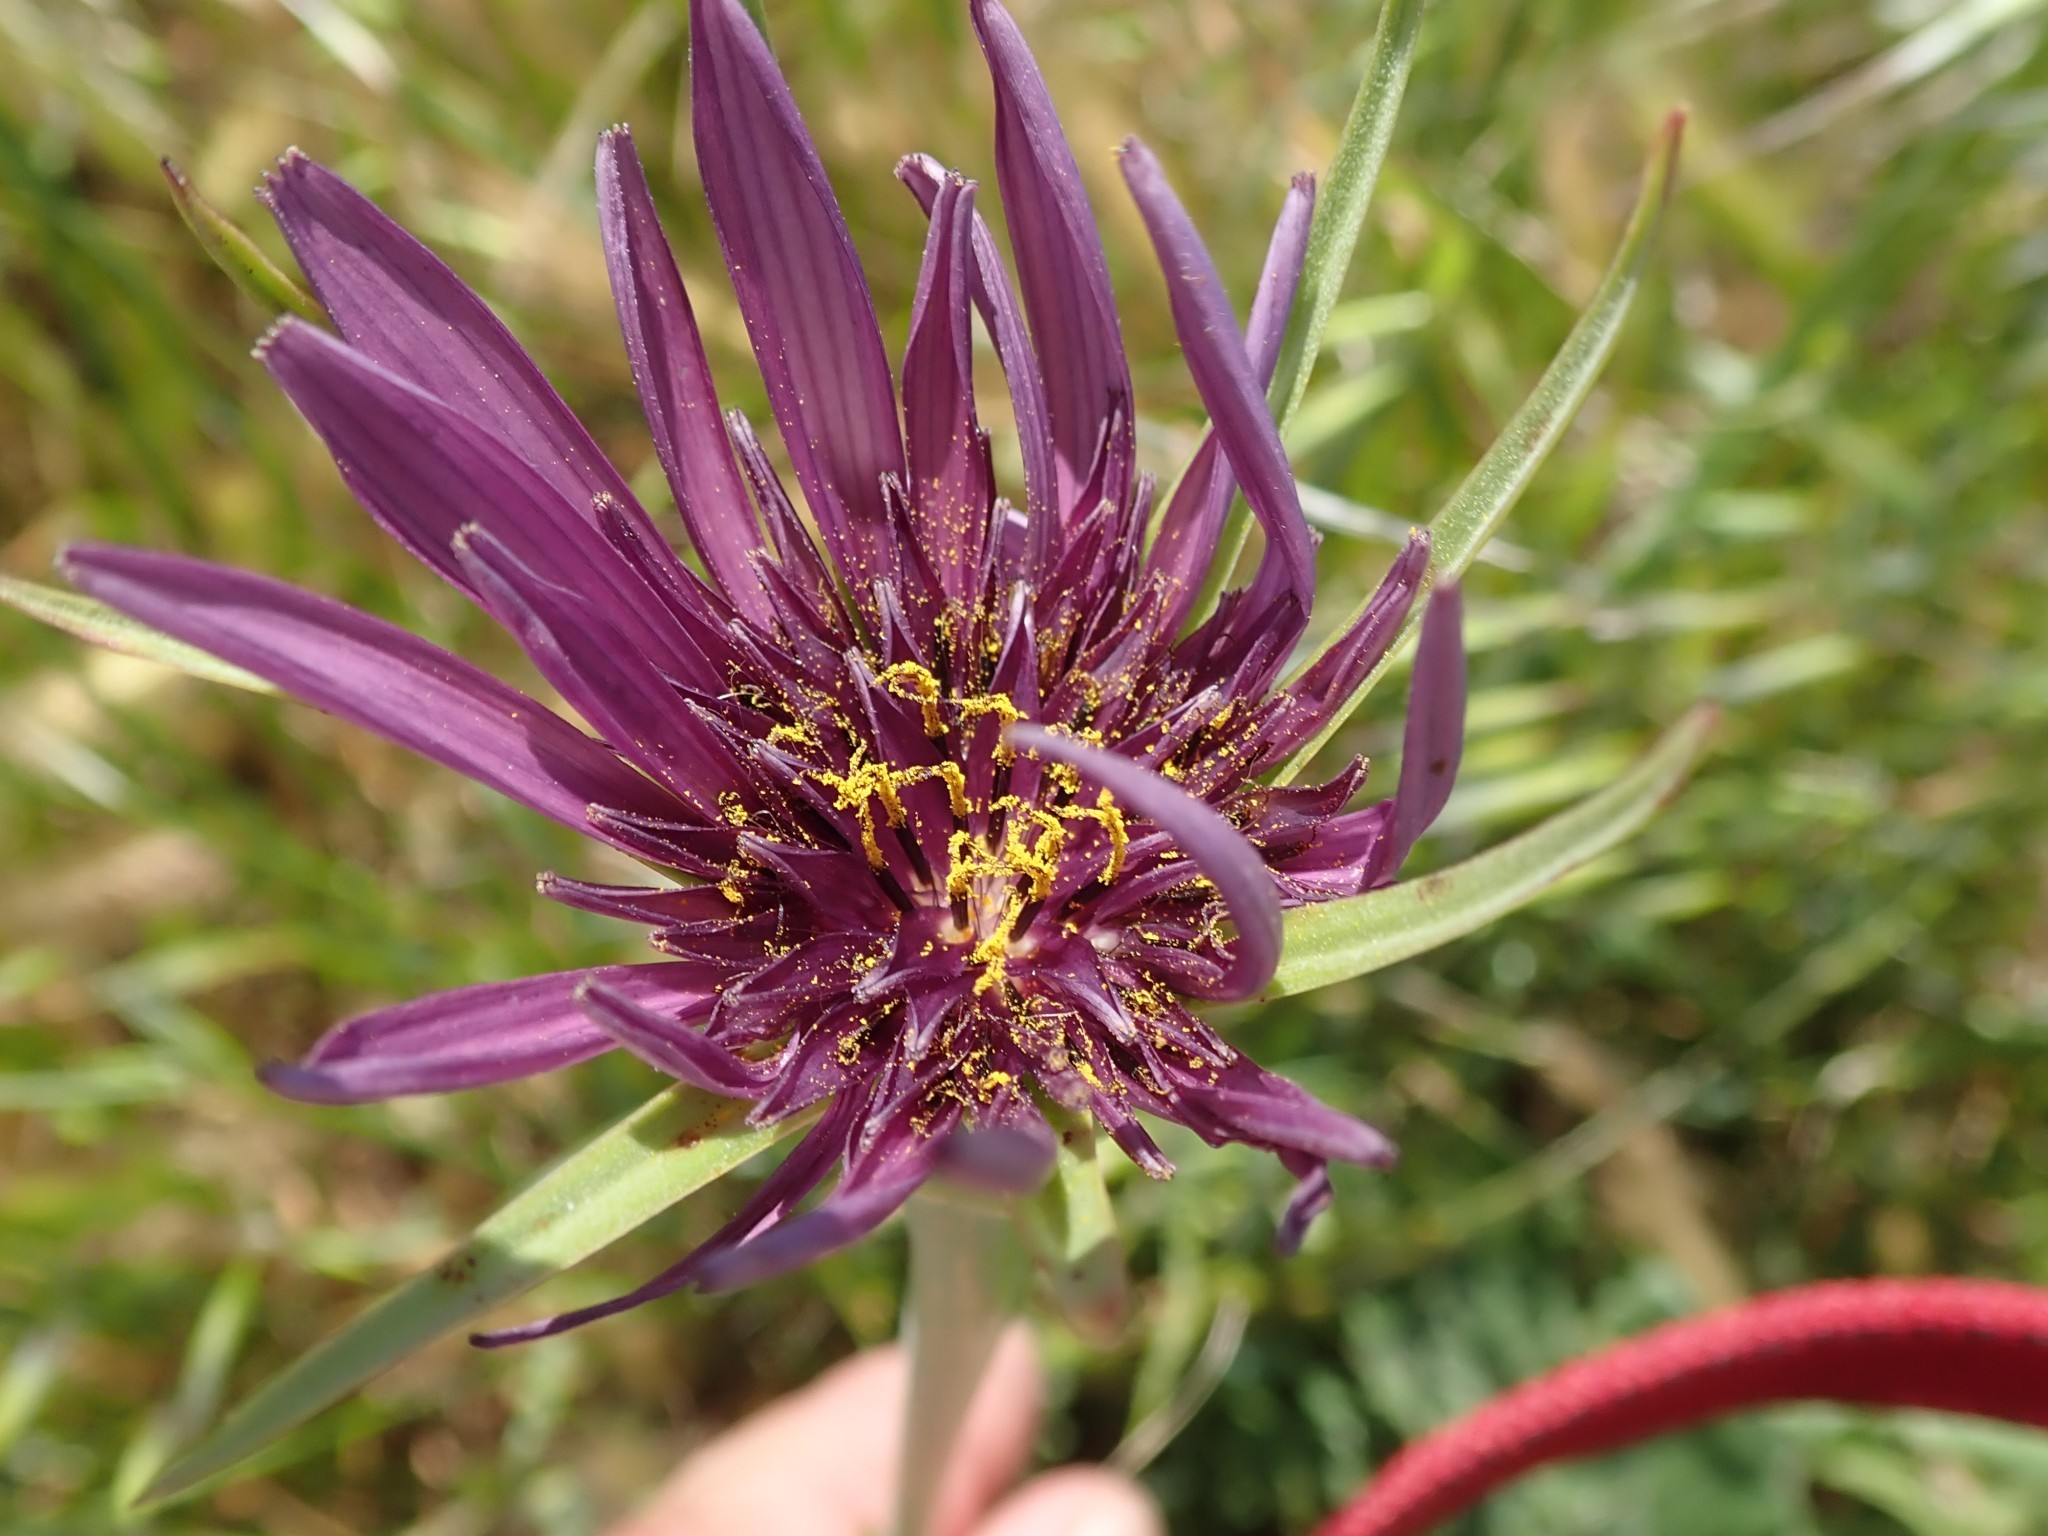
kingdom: Plantae
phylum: Tracheophyta
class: Magnoliopsida
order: Asterales
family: Asteraceae
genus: Tragopogon
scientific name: Tragopogon porrifolius
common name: Salsify
